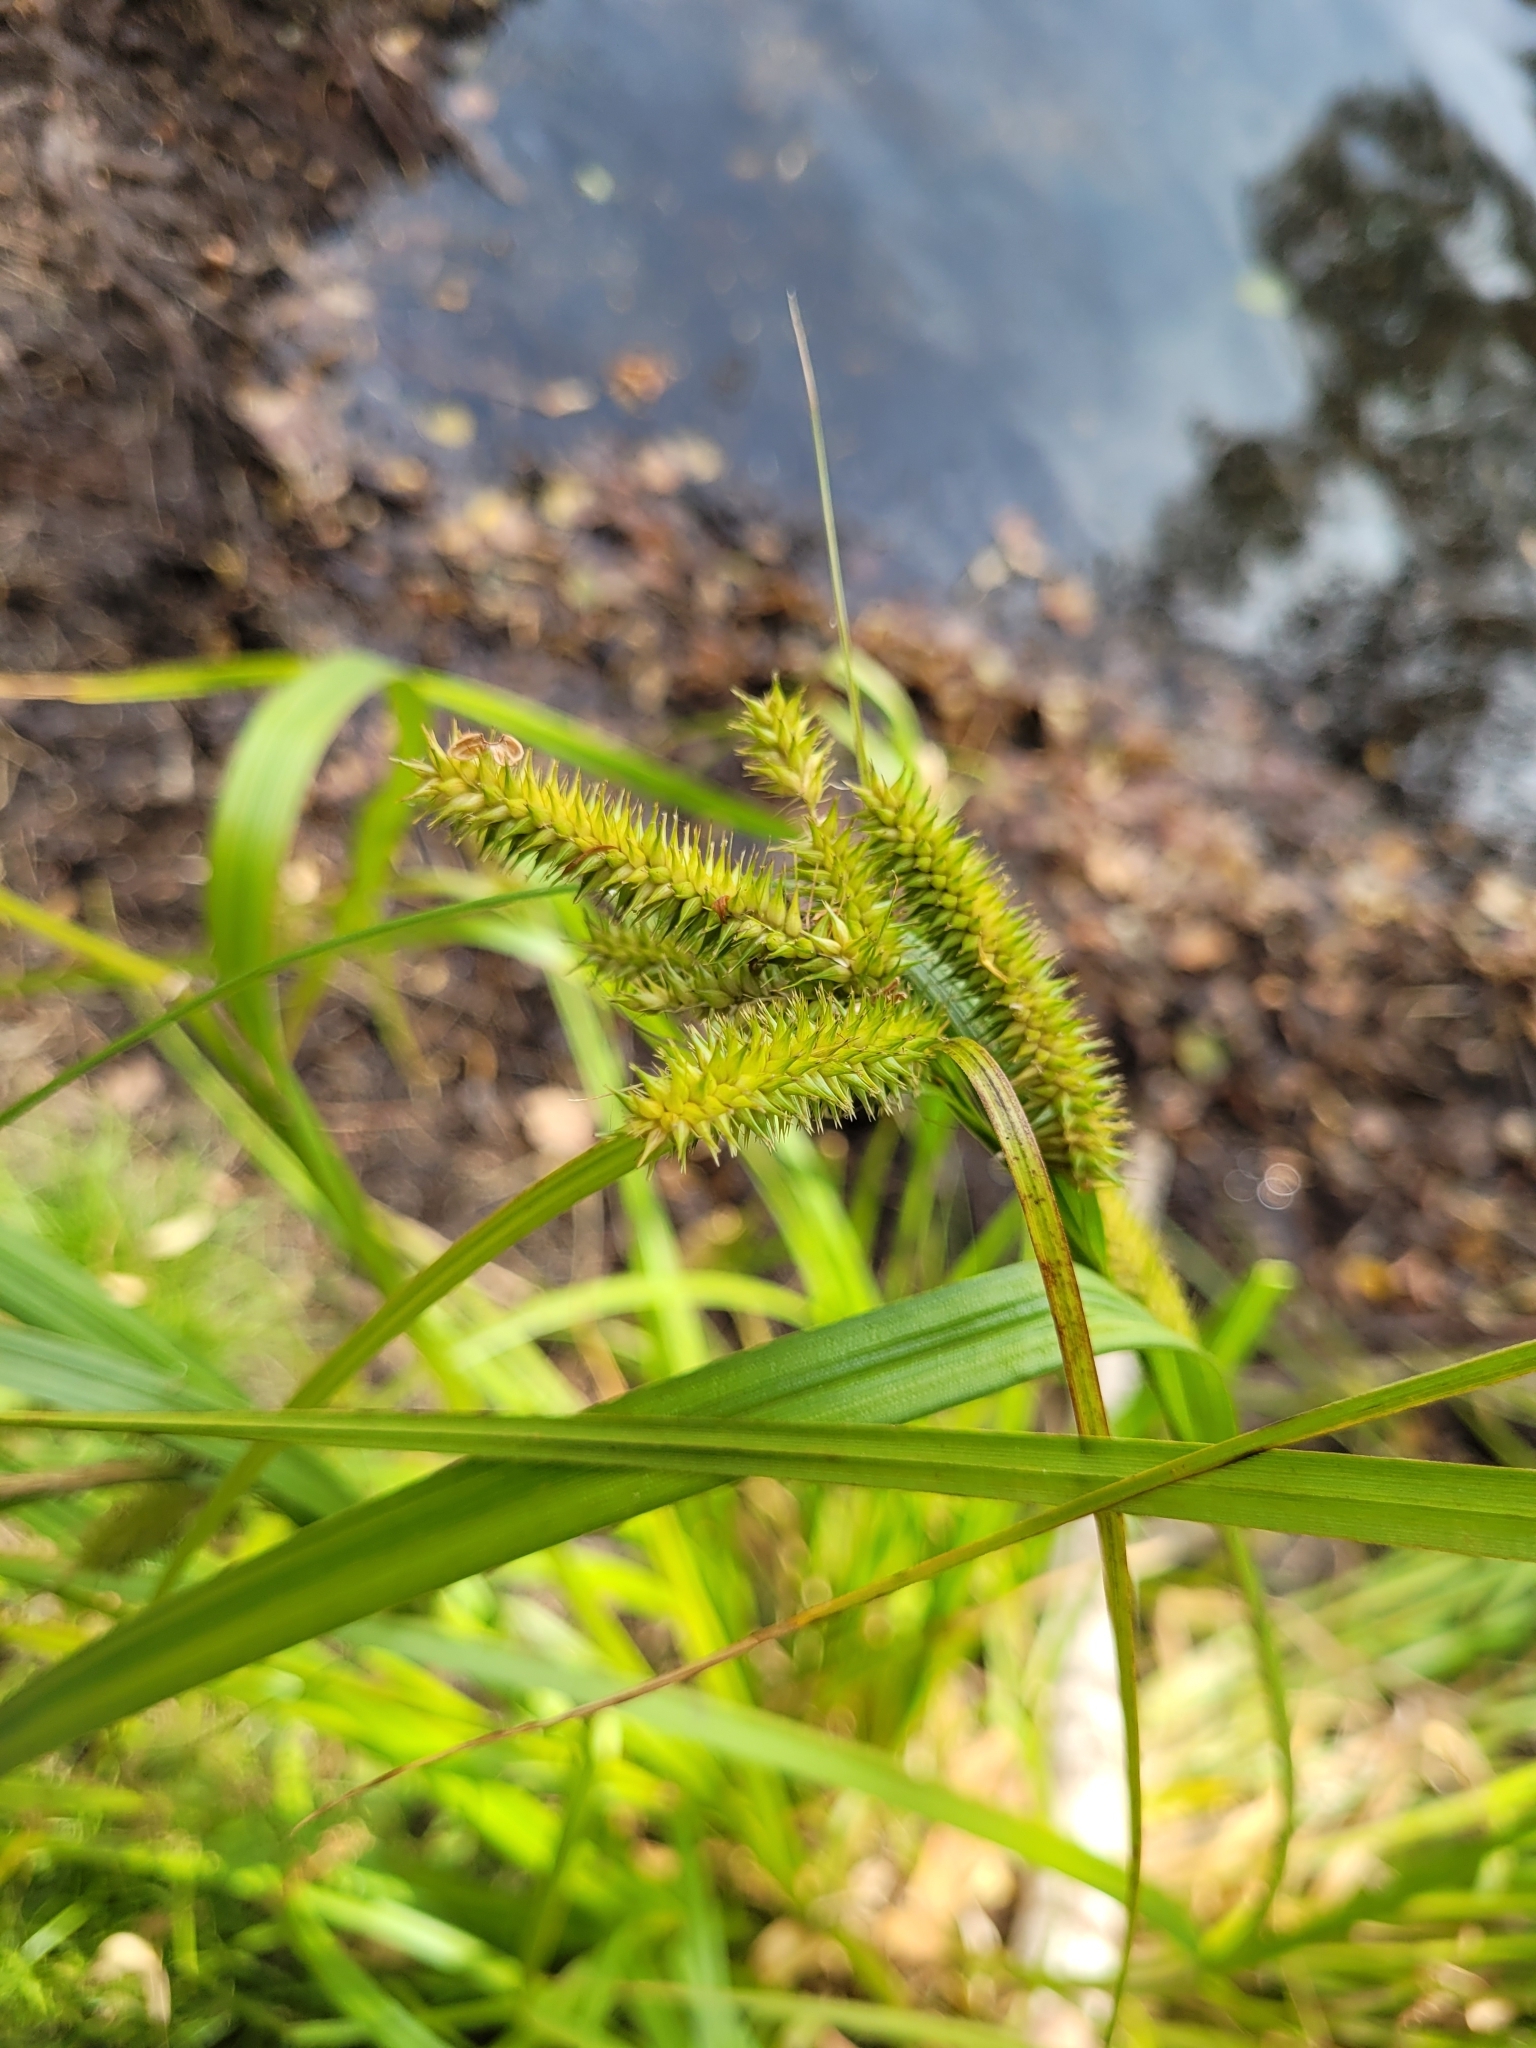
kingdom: Plantae
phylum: Tracheophyta
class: Liliopsida
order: Poales
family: Cyperaceae
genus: Carex
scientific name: Carex pseudocyperus
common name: Cyperus sedge
